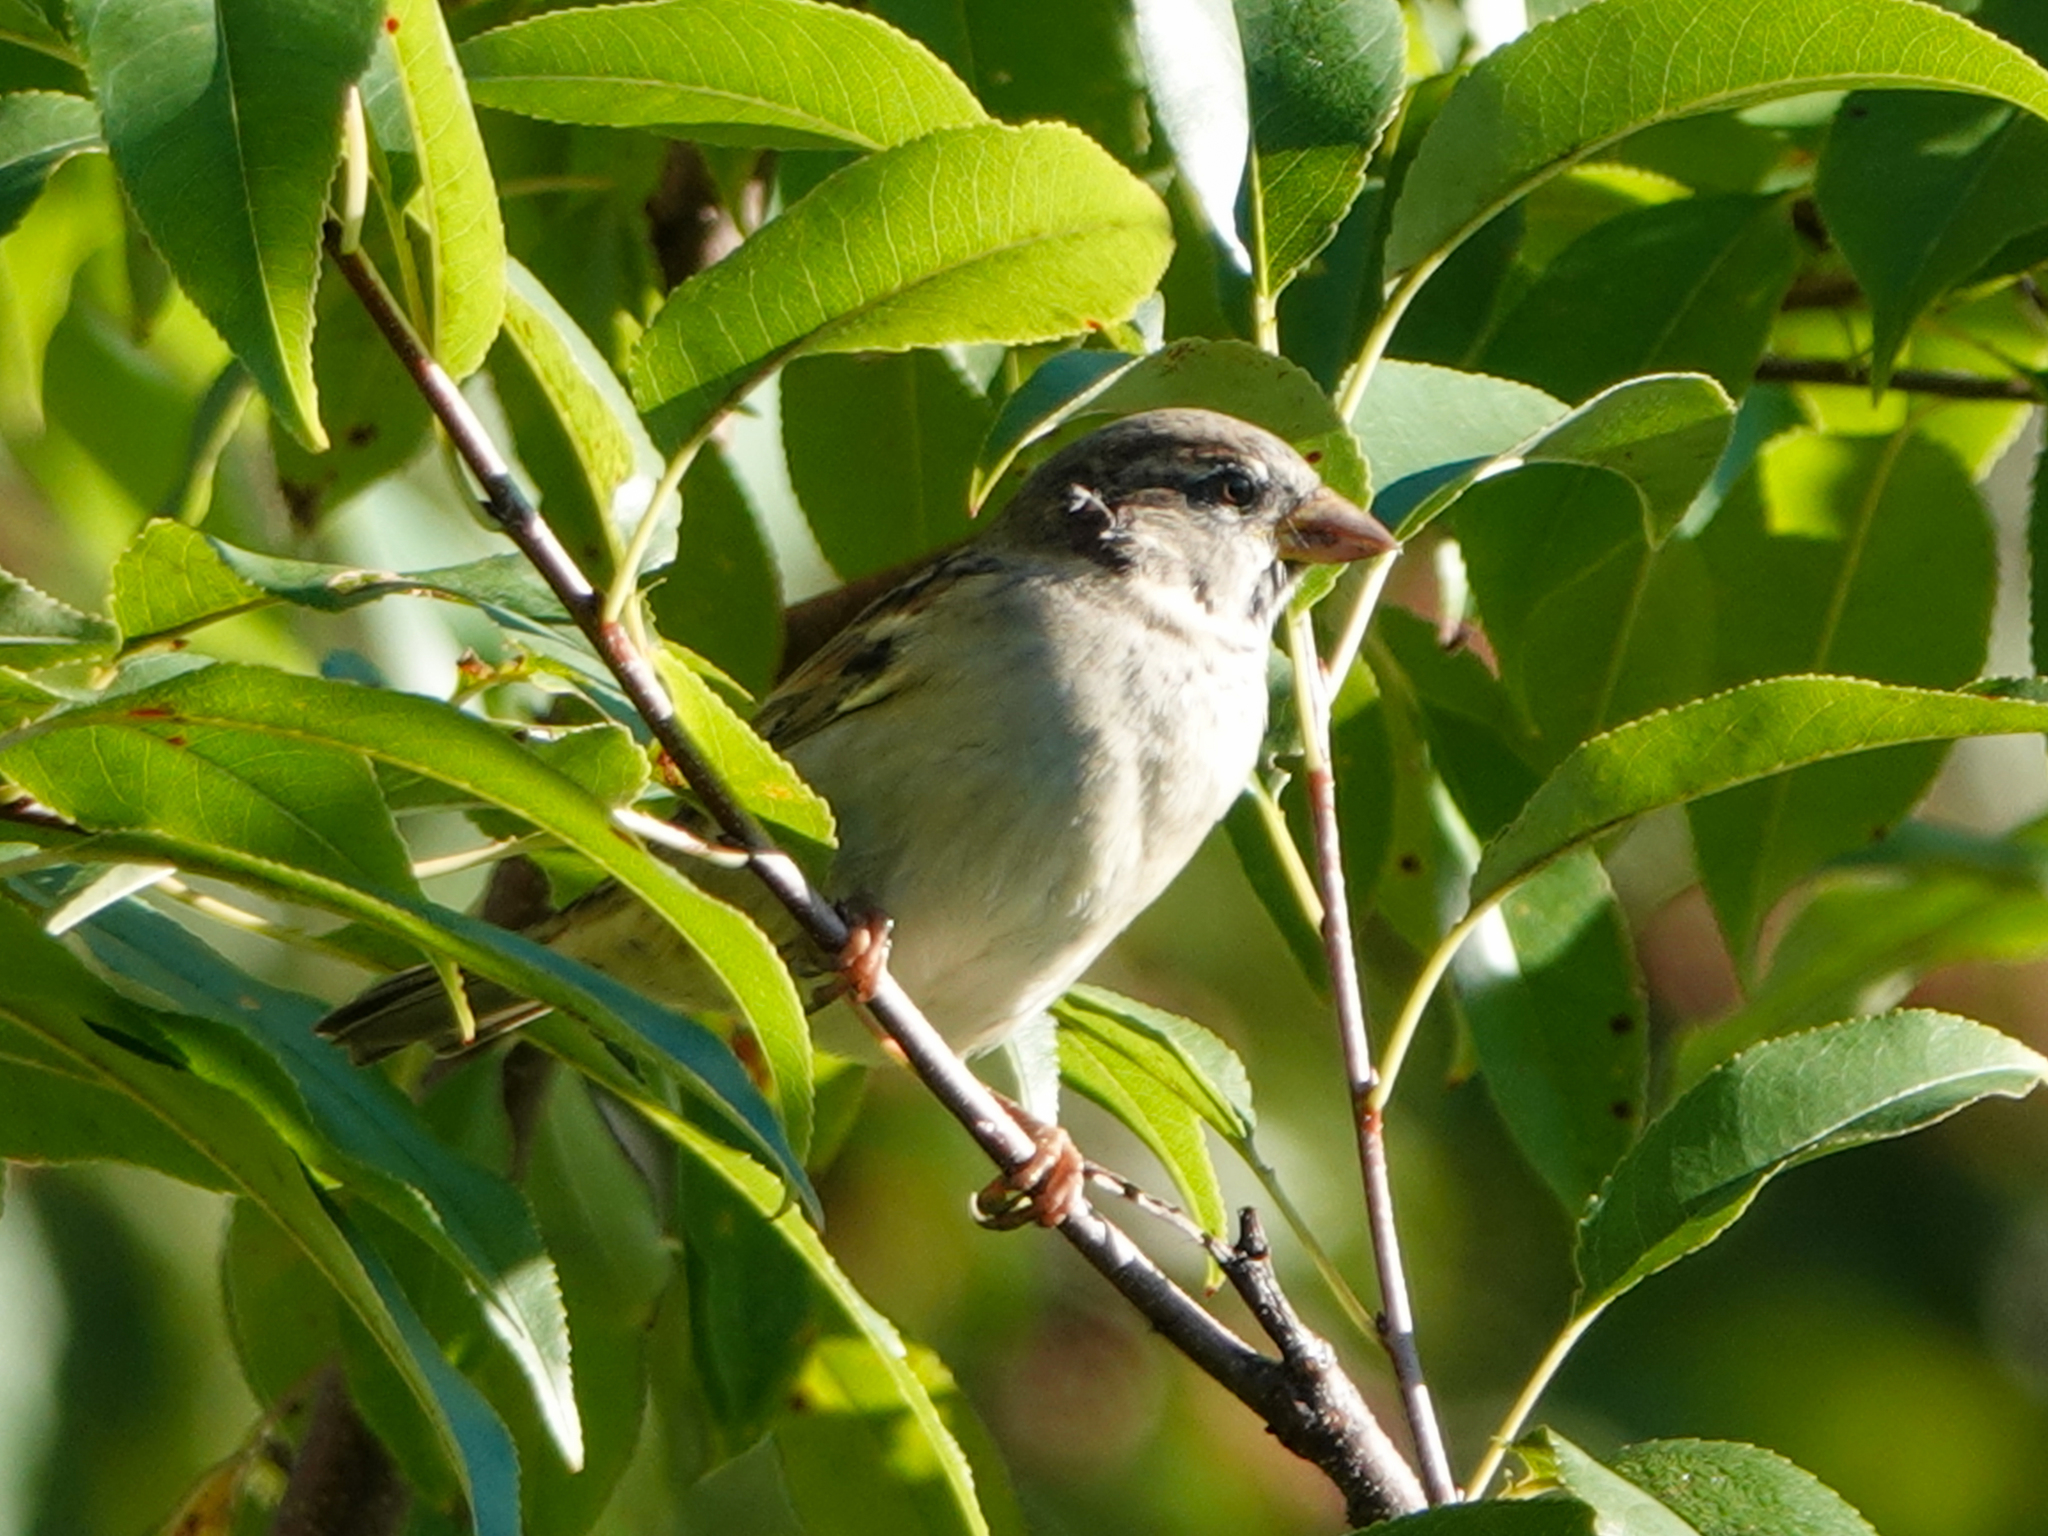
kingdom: Animalia
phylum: Chordata
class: Aves
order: Passeriformes
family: Passeridae
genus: Passer
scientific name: Passer domesticus
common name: House sparrow
